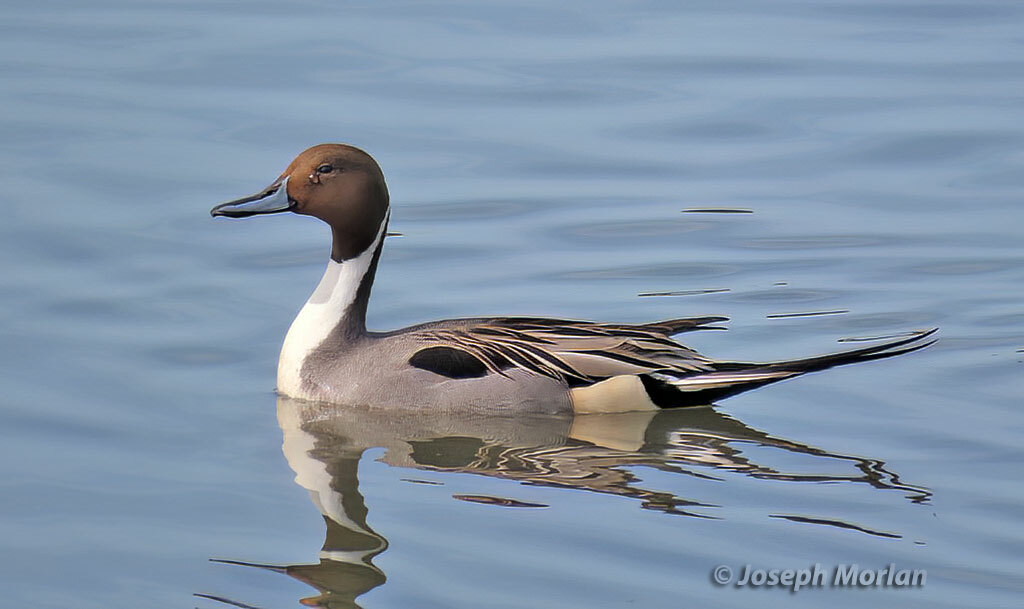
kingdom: Animalia
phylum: Chordata
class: Aves
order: Anseriformes
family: Anatidae
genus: Anas
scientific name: Anas acuta
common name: Northern pintail
